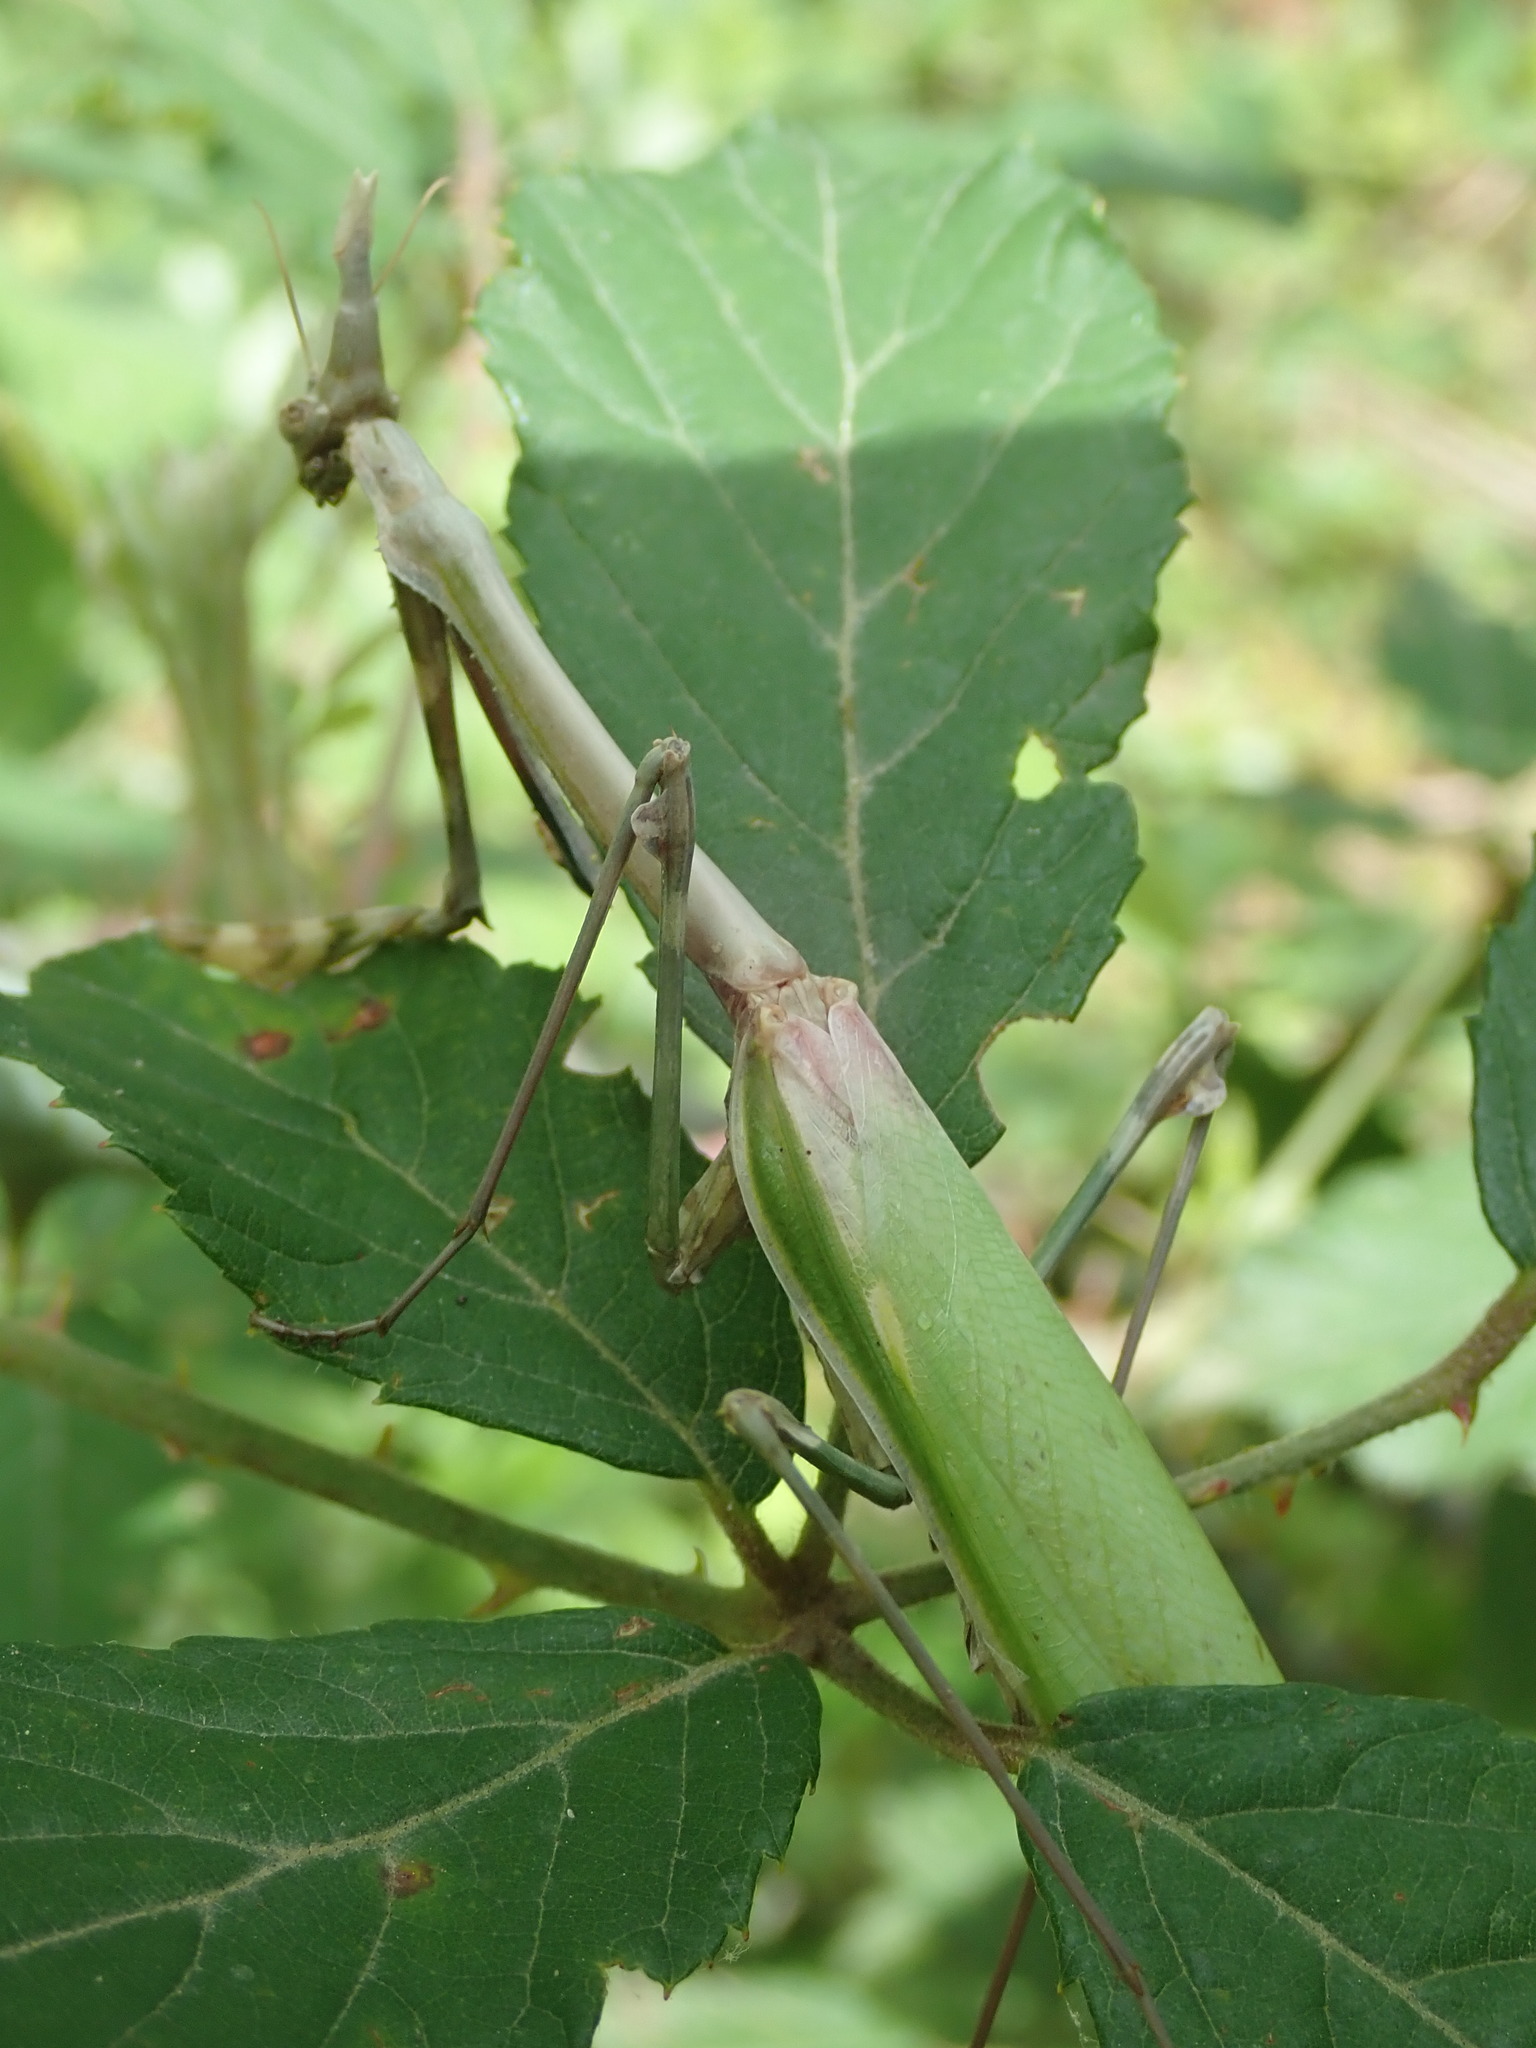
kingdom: Animalia
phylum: Arthropoda
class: Insecta
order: Mantodea
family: Empusidae
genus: Empusa
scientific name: Empusa pennata
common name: Conehead mantis
